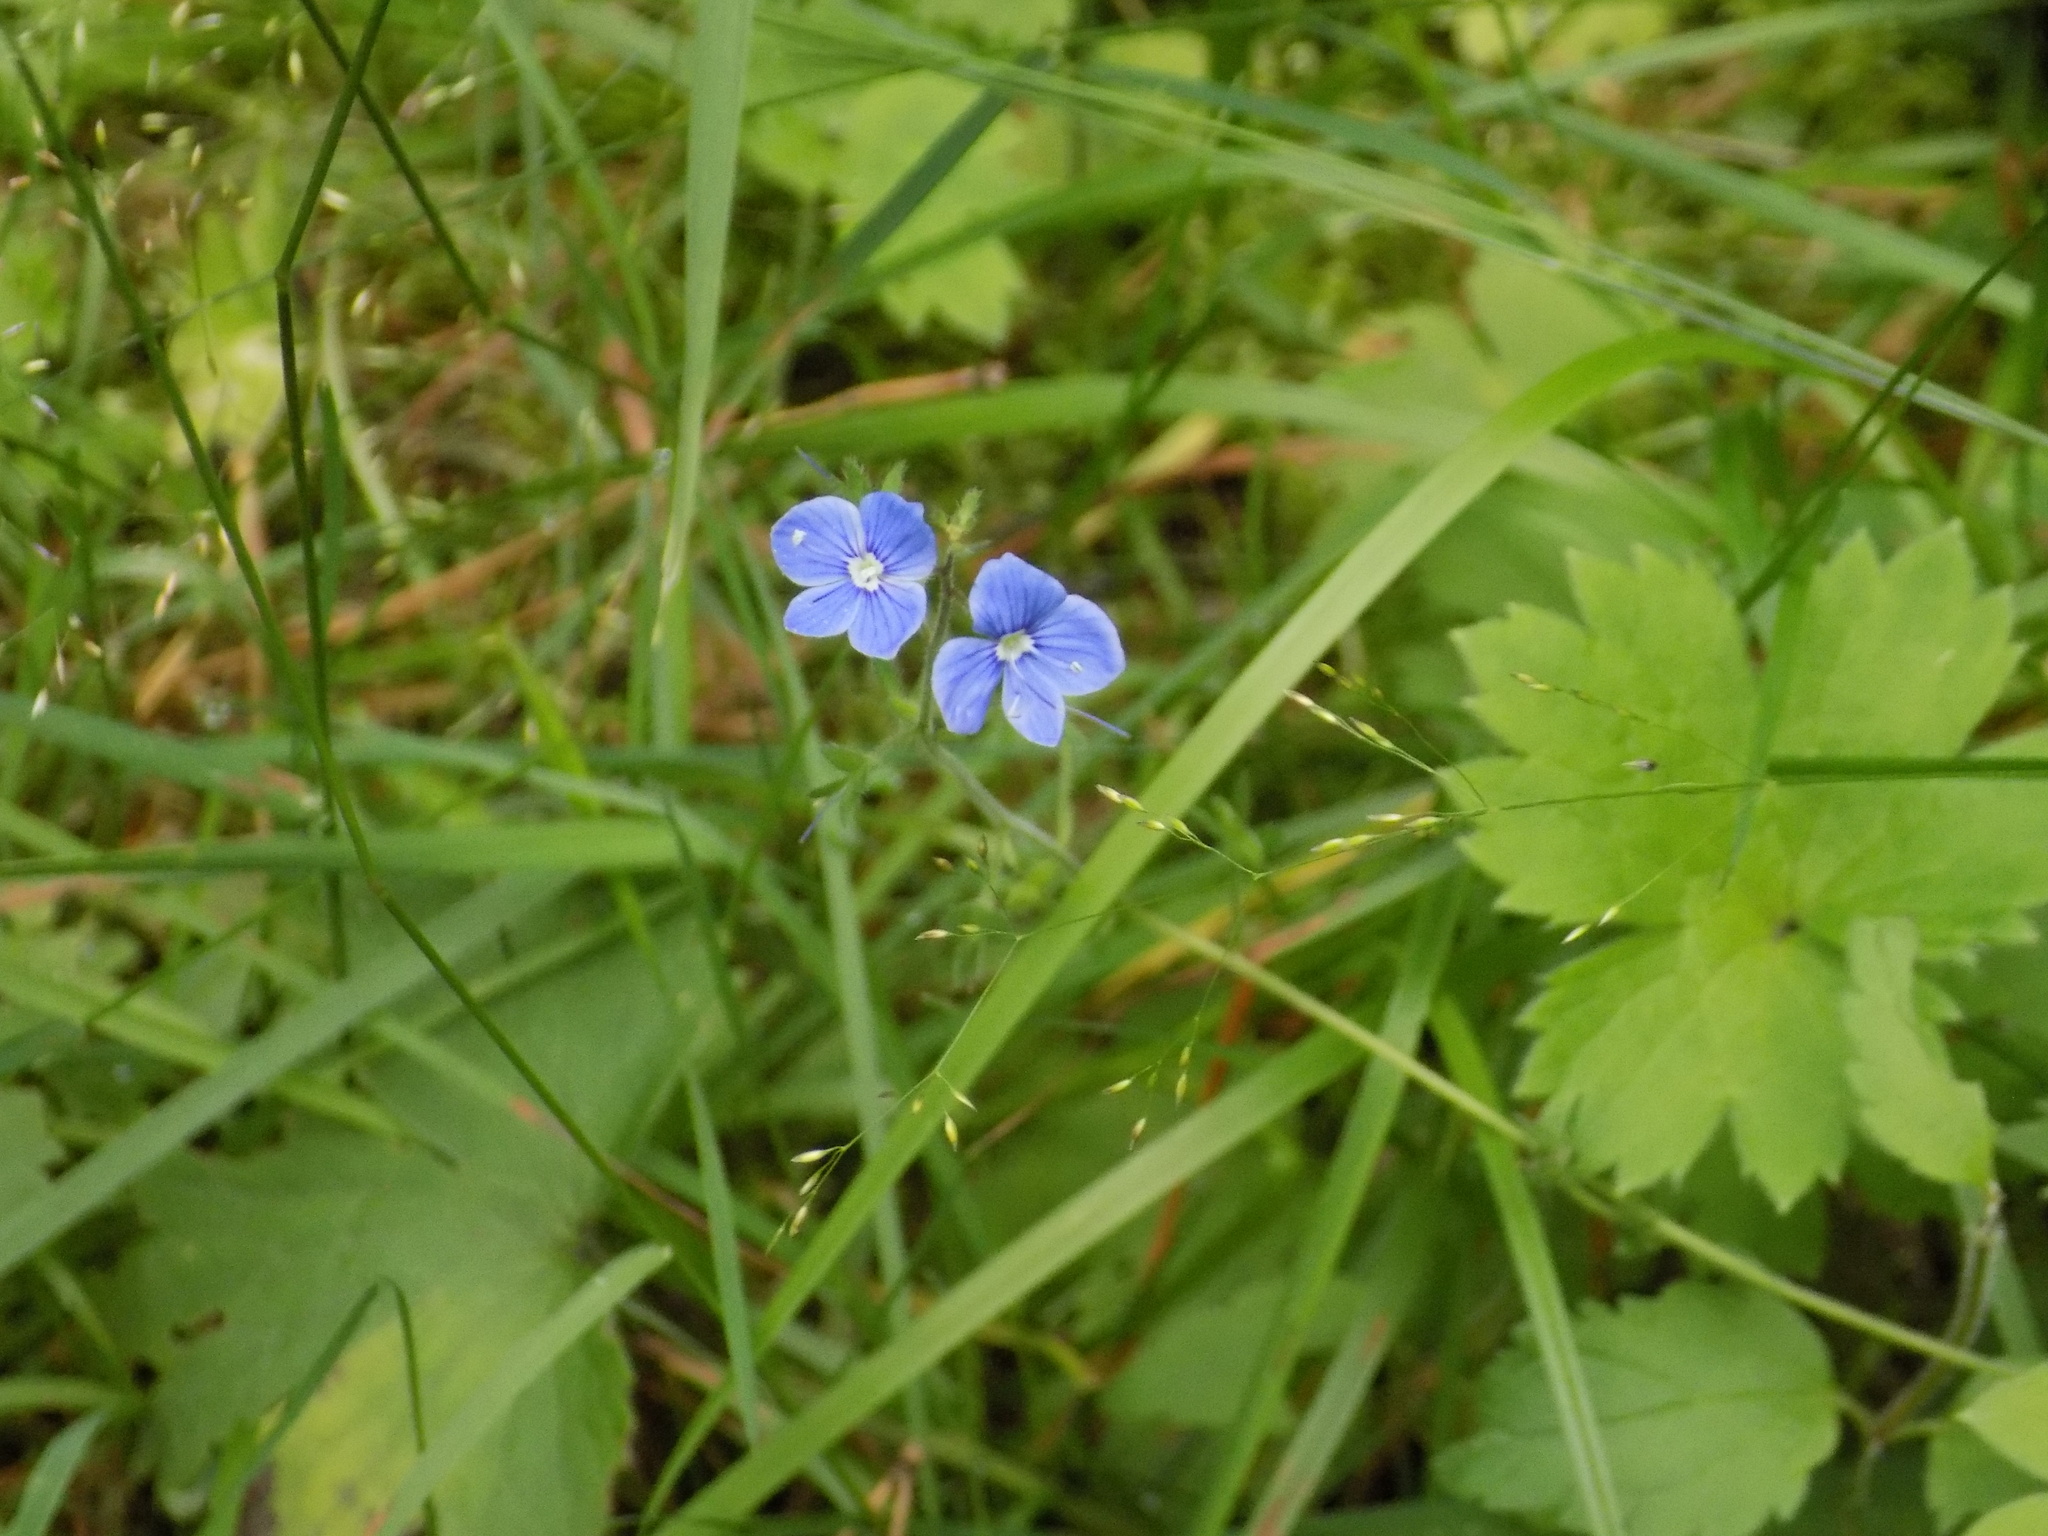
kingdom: Plantae
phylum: Tracheophyta
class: Magnoliopsida
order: Lamiales
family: Plantaginaceae
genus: Veronica
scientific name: Veronica chamaedrys
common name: Germander speedwell
